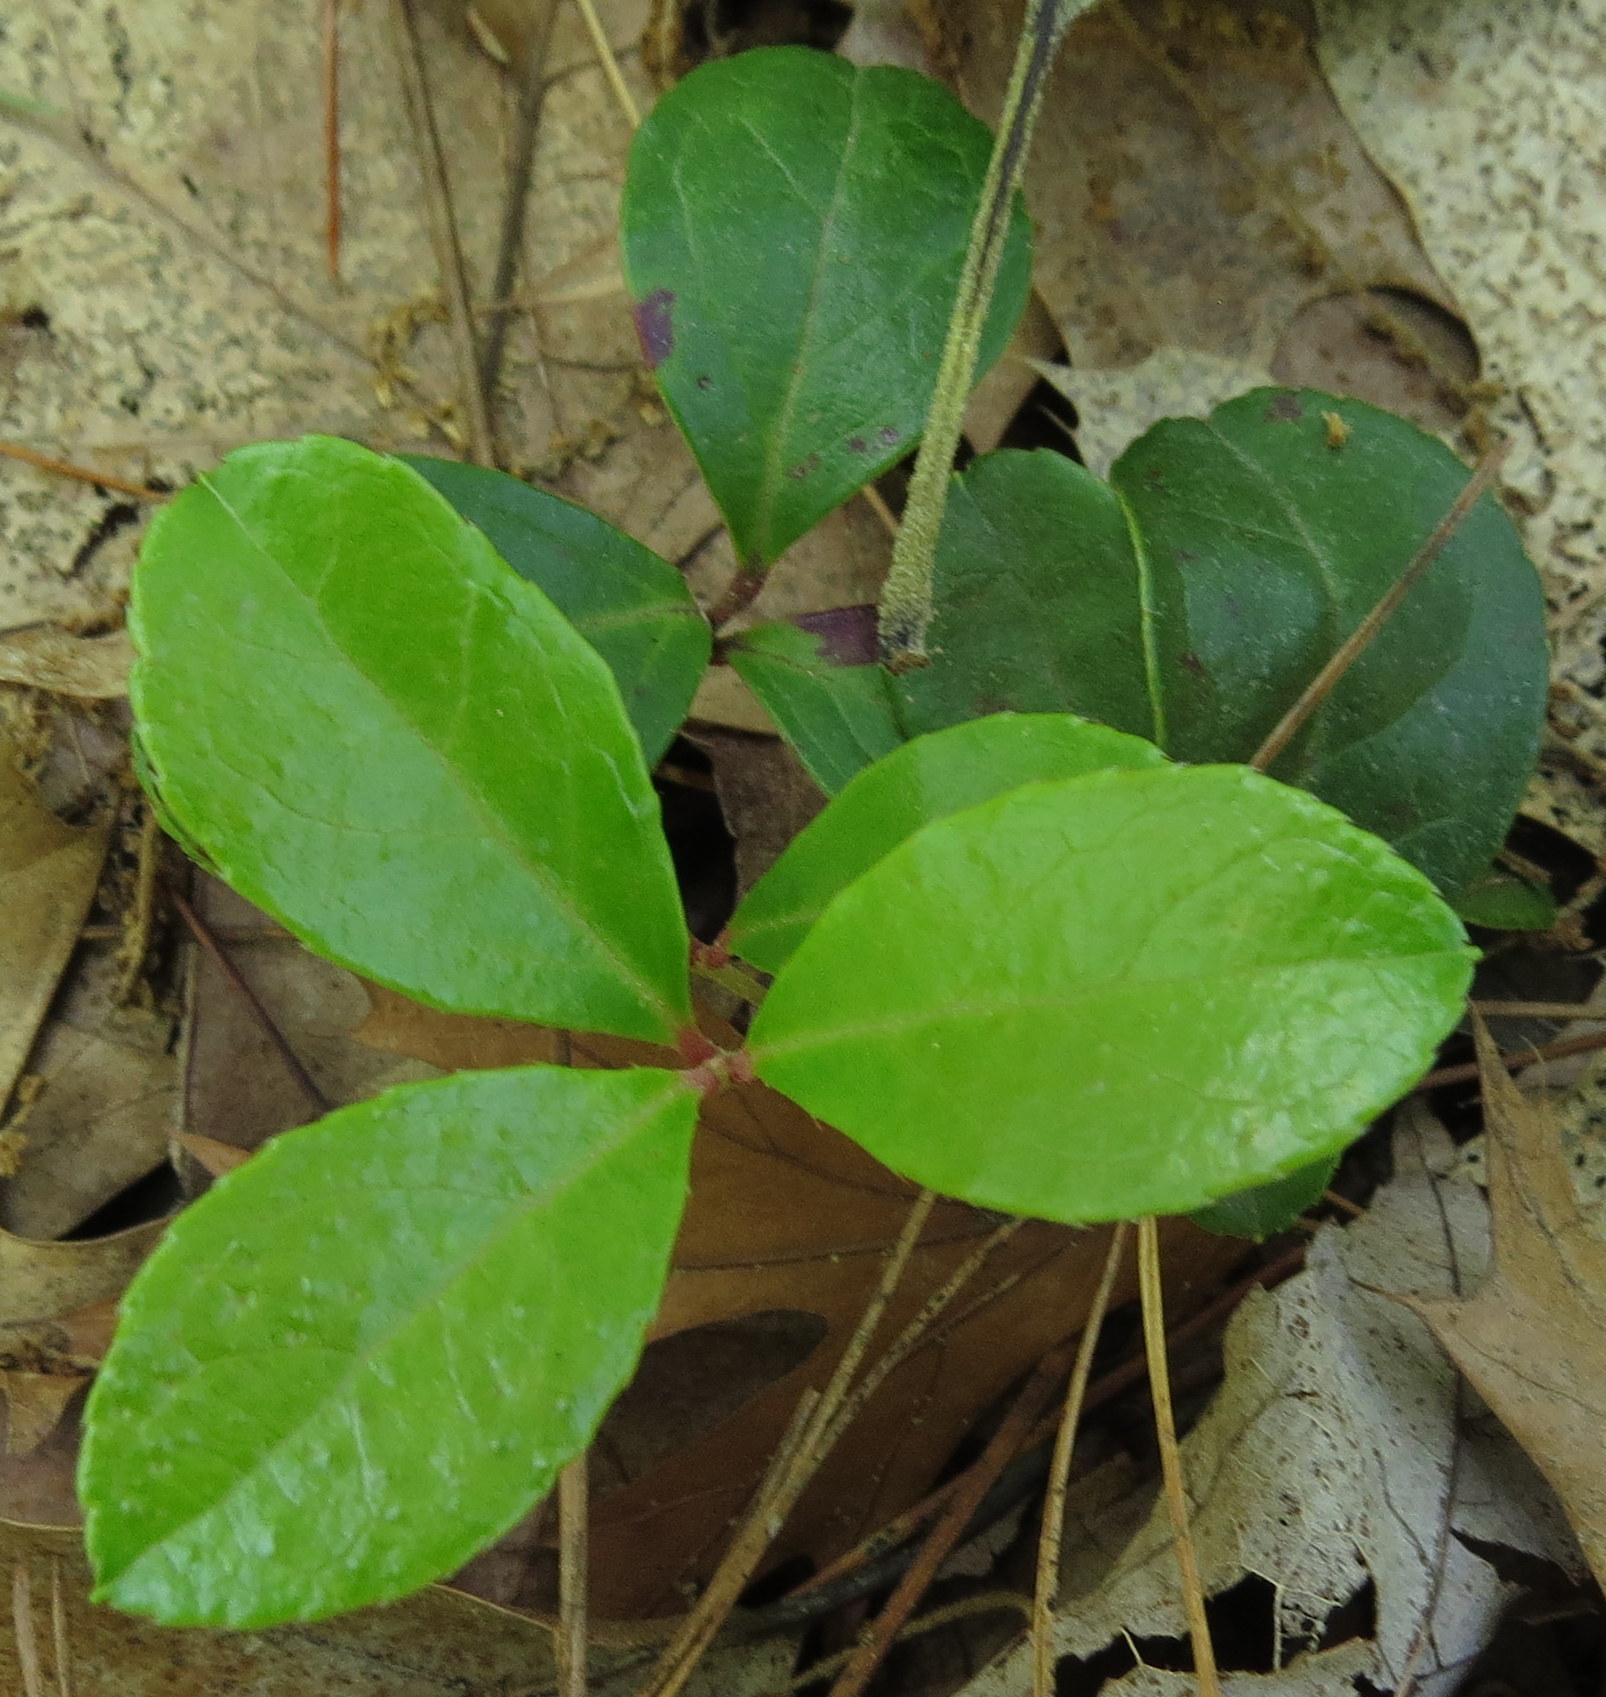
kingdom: Plantae
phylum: Tracheophyta
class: Magnoliopsida
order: Ericales
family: Ericaceae
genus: Gaultheria
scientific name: Gaultheria procumbens
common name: Checkerberry
